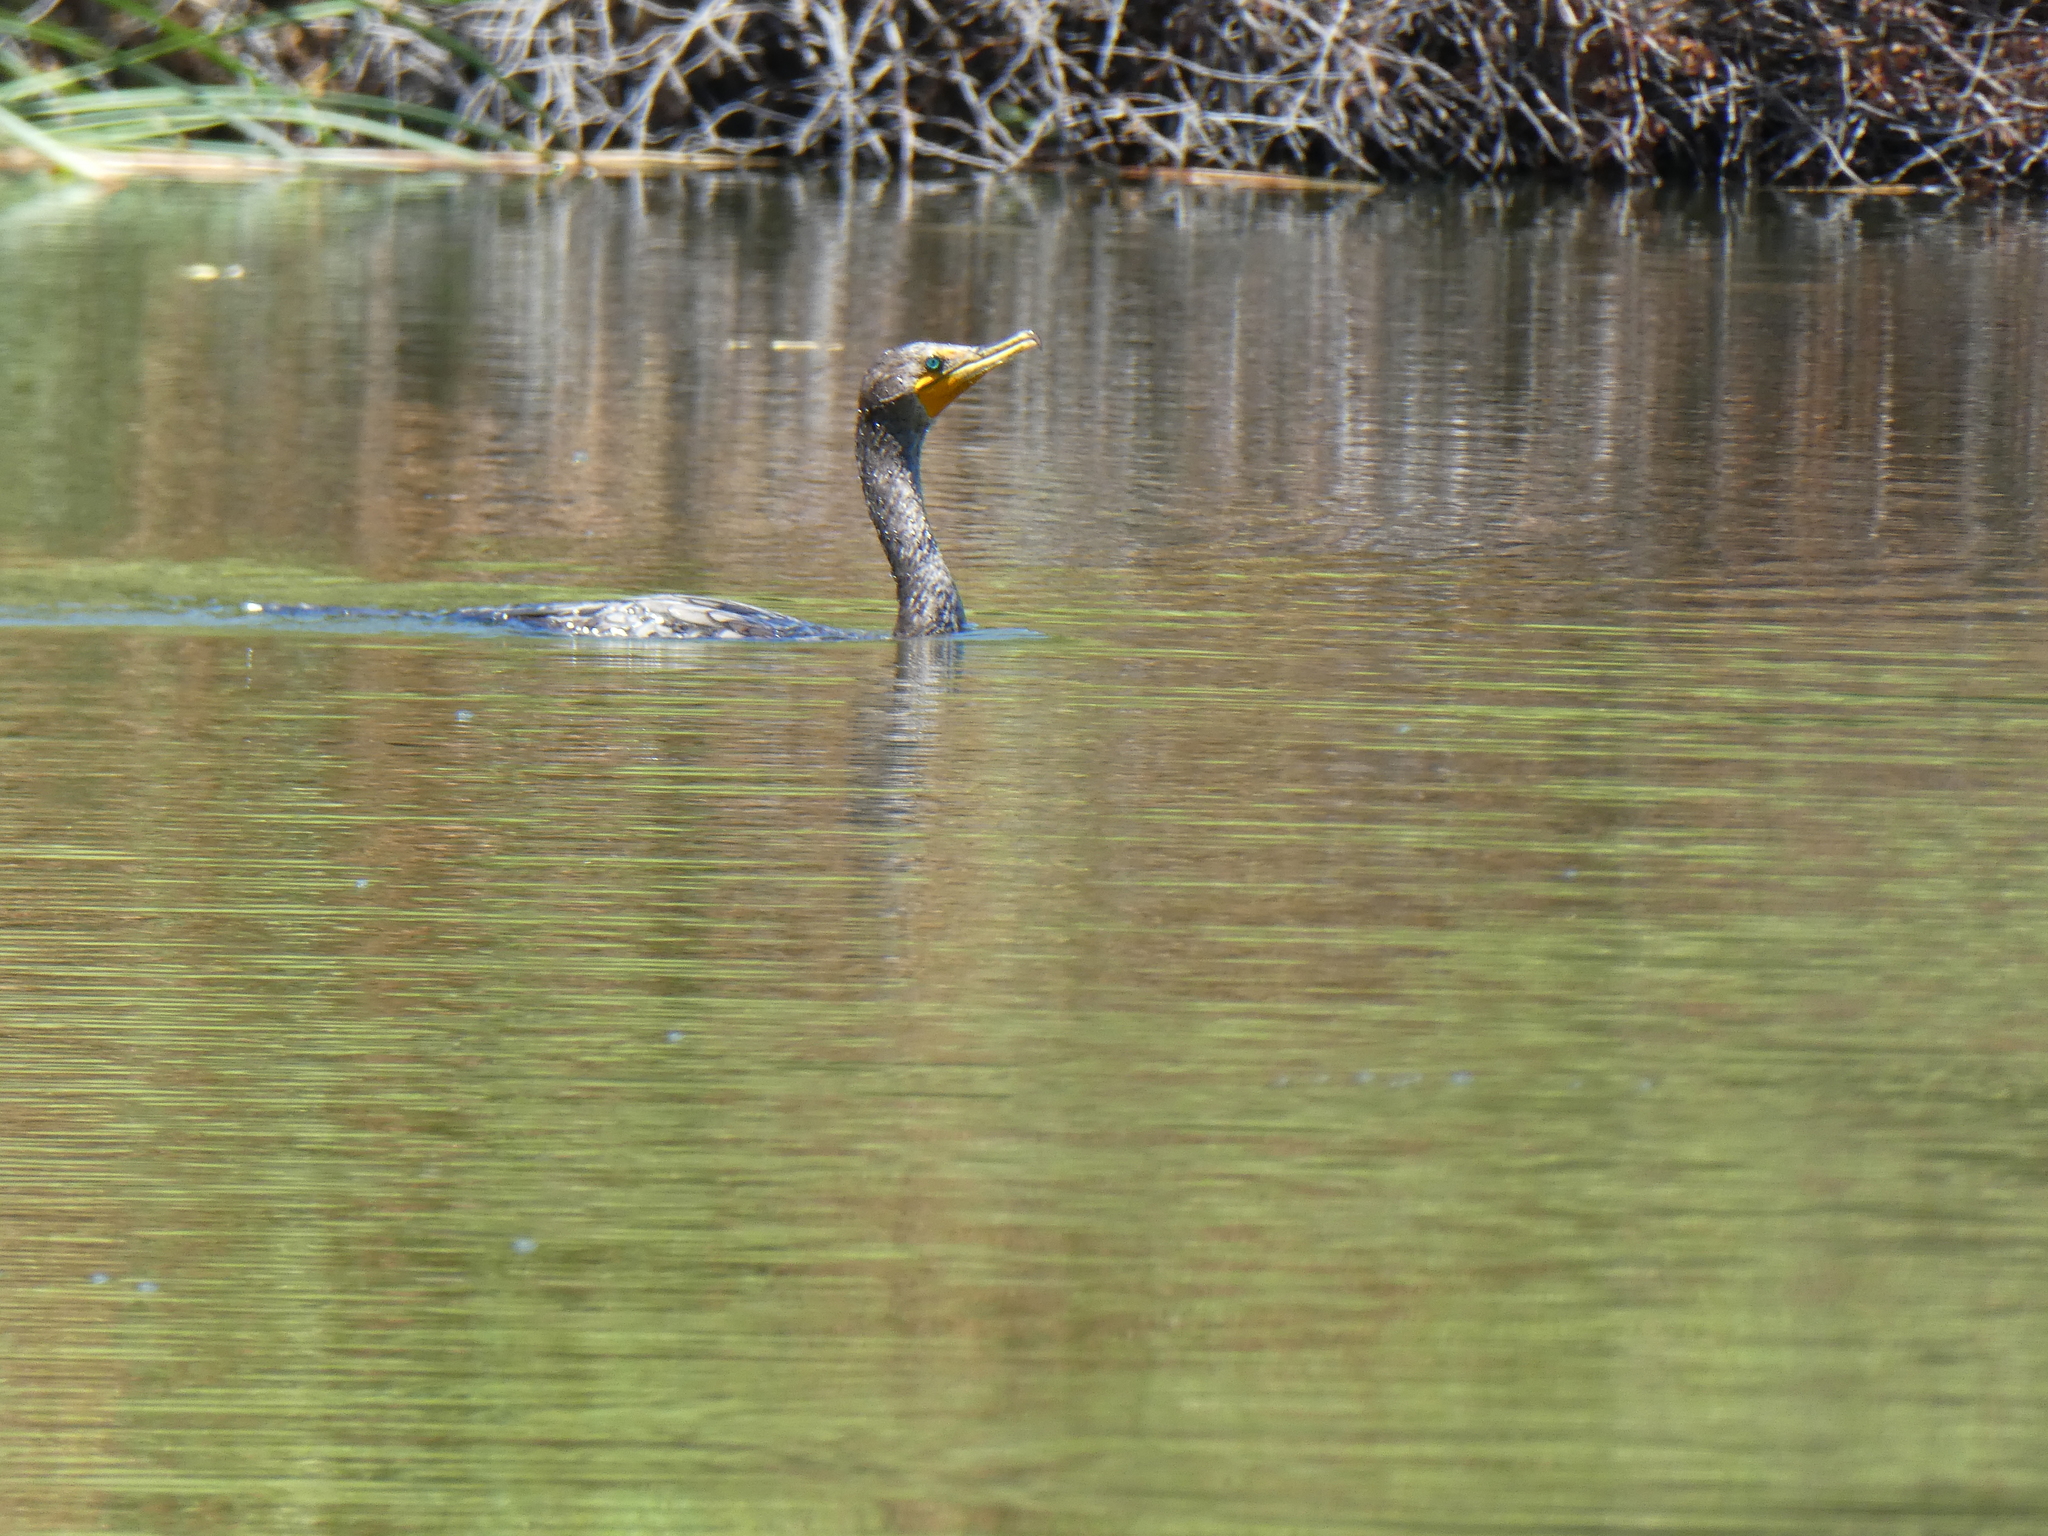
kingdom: Animalia
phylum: Chordata
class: Aves
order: Suliformes
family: Phalacrocoracidae
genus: Phalacrocorax
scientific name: Phalacrocorax auritus
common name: Double-crested cormorant
